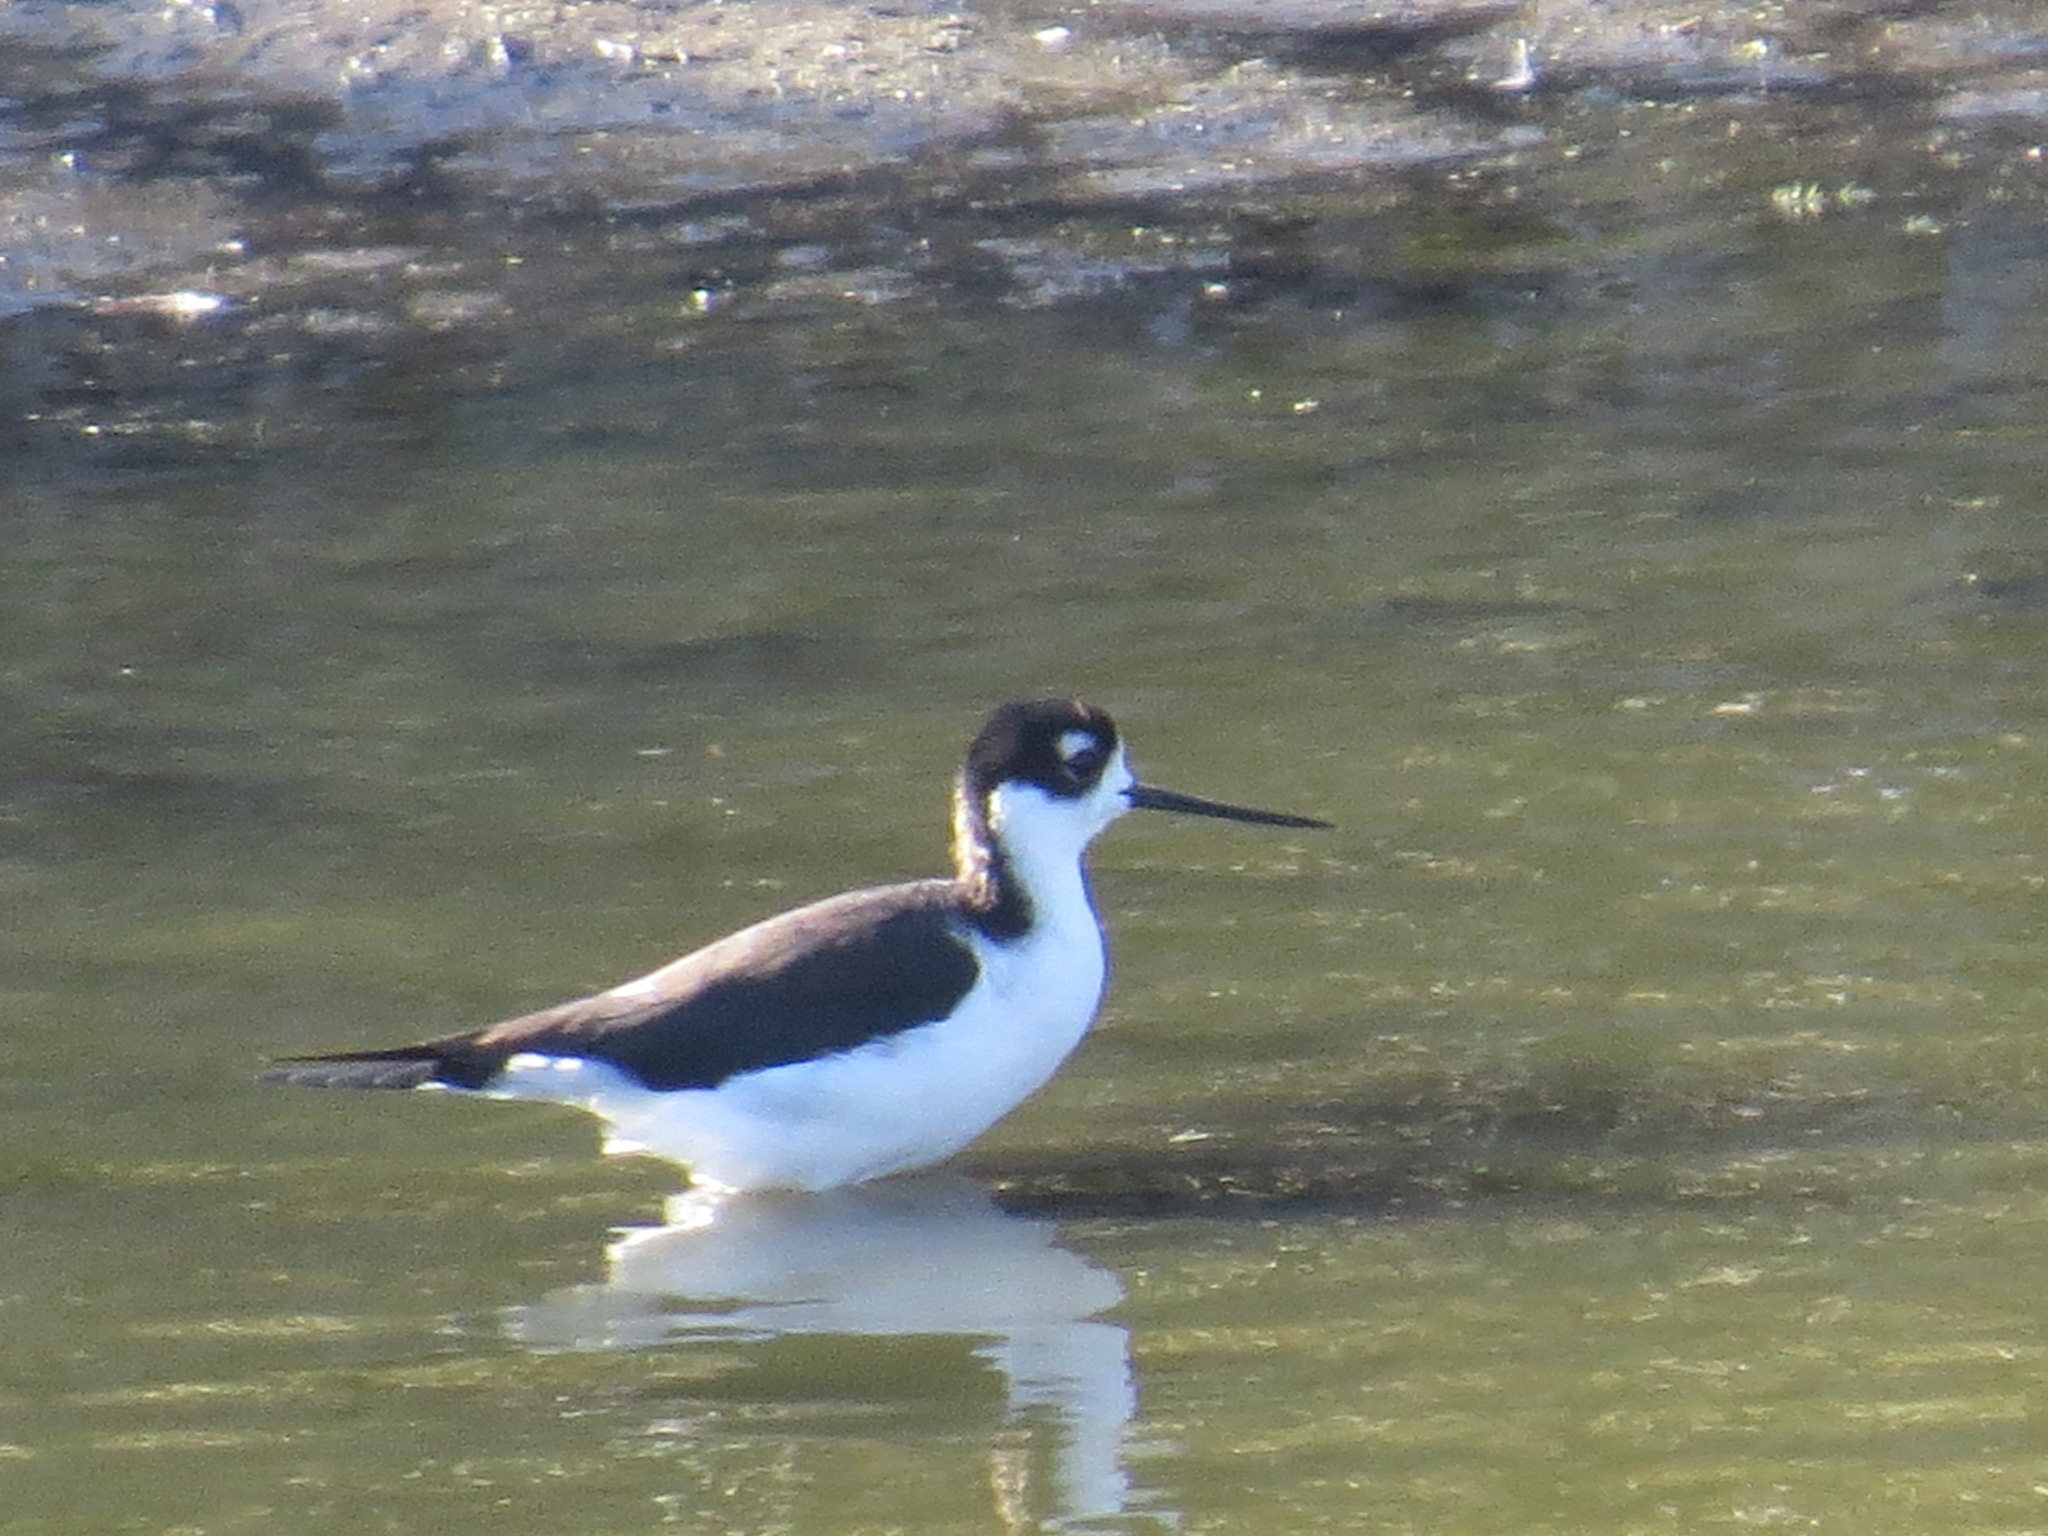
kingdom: Animalia
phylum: Chordata
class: Aves
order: Charadriiformes
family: Recurvirostridae
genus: Himantopus
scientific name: Himantopus mexicanus
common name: Black-necked stilt
